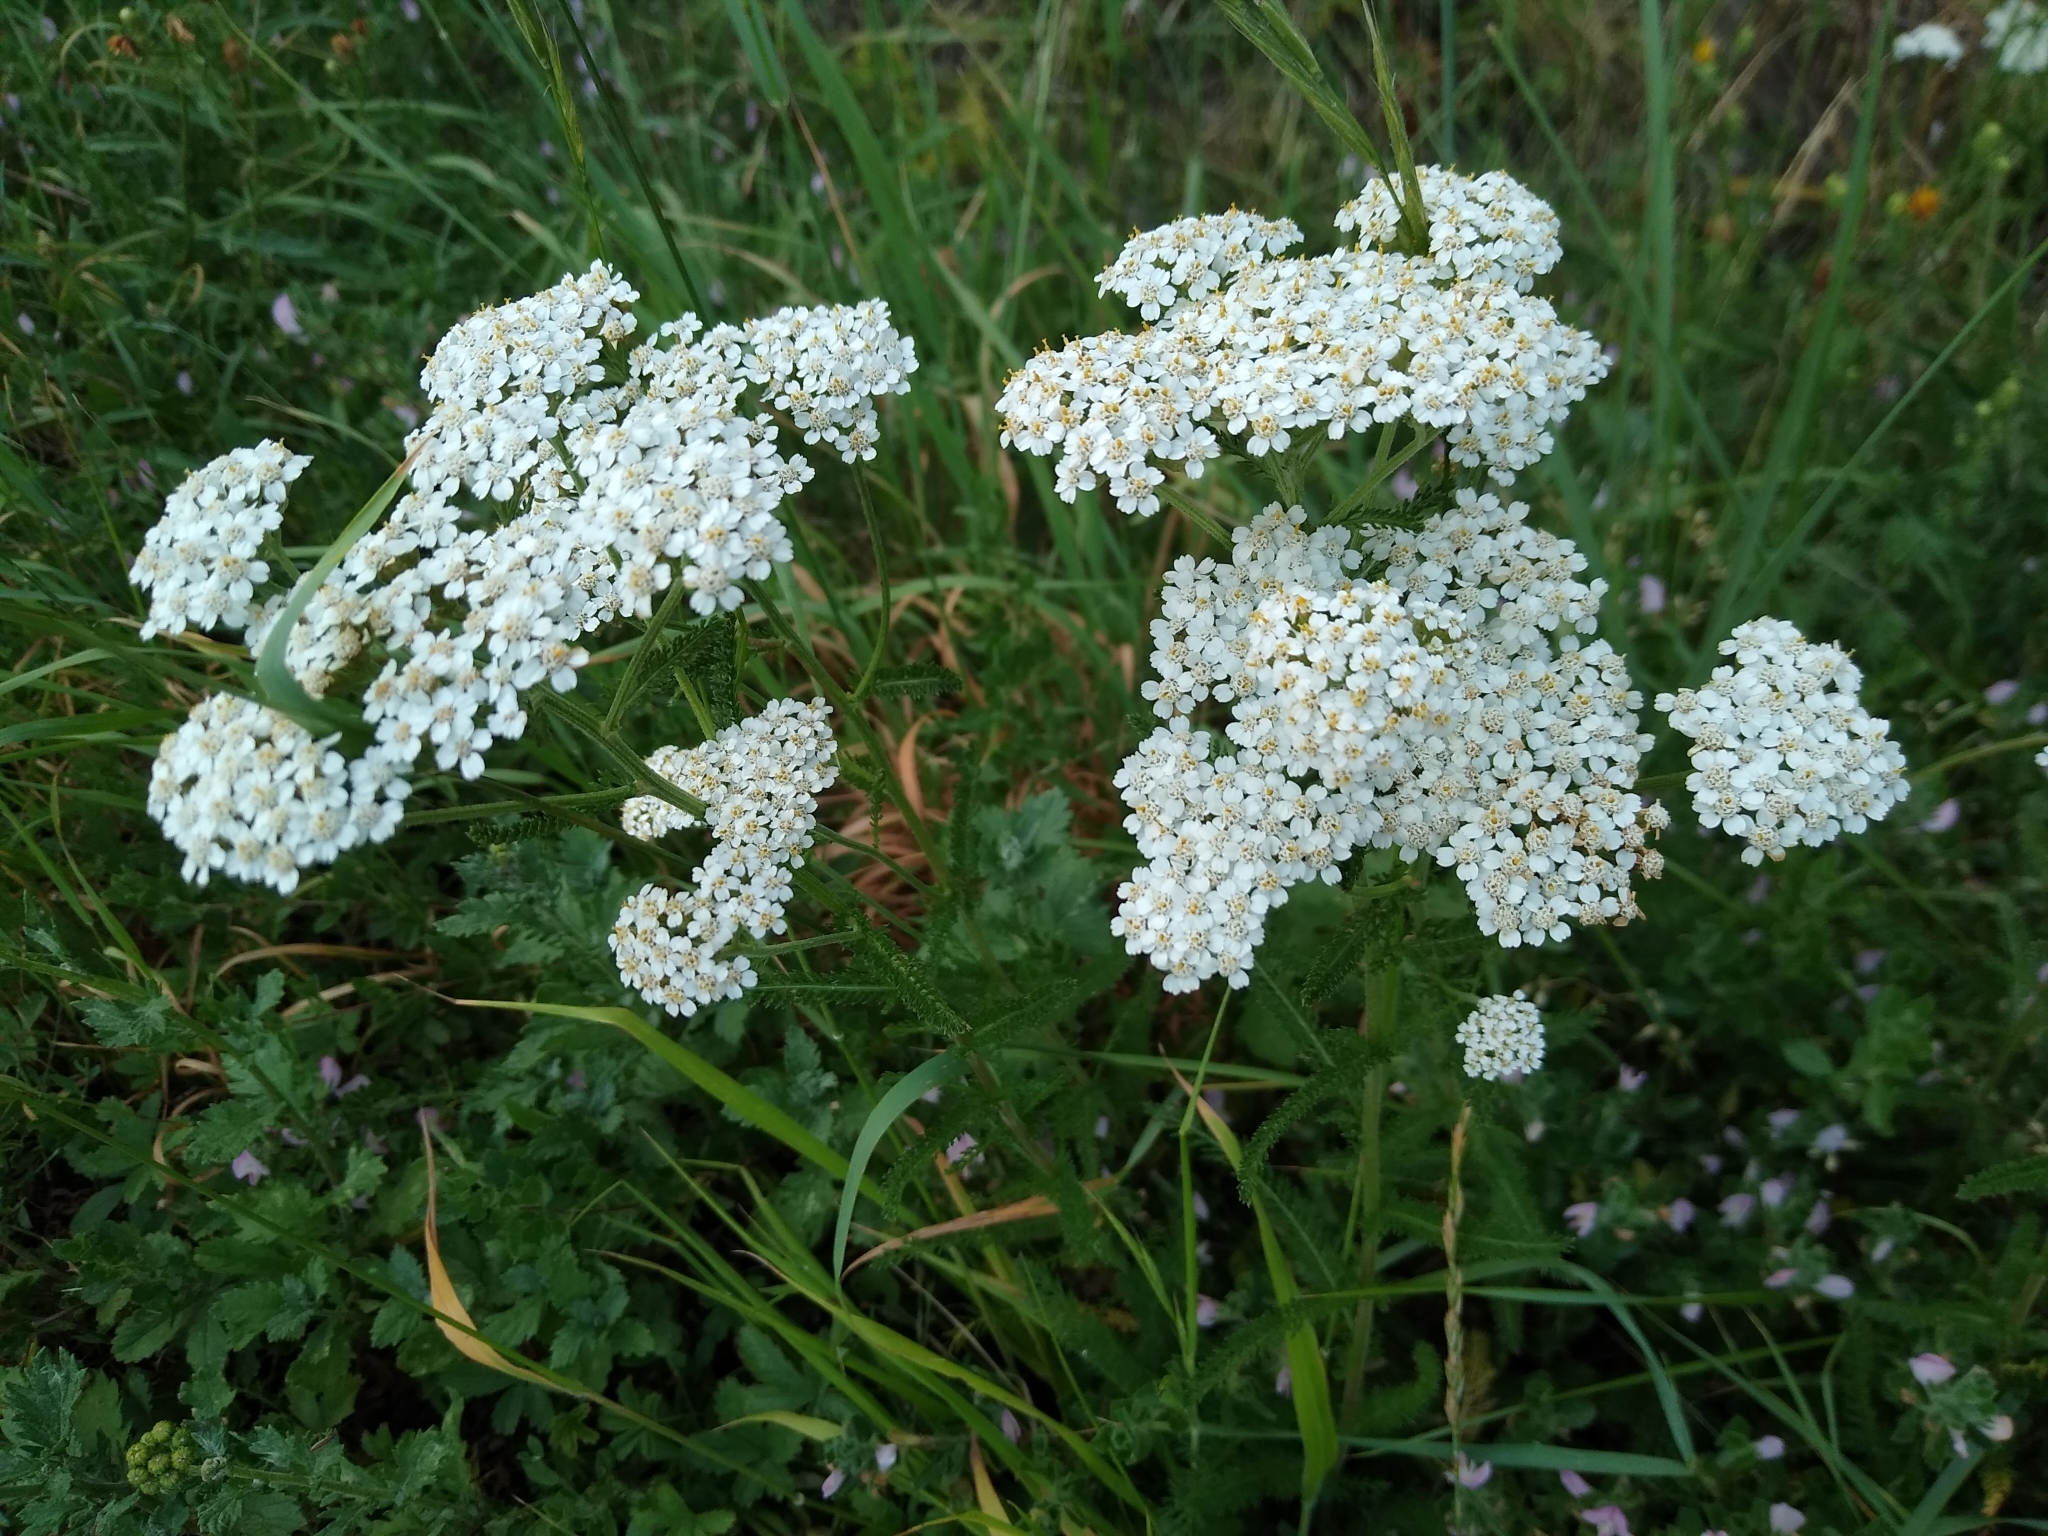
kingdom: Plantae
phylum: Tracheophyta
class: Magnoliopsida
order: Asterales
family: Asteraceae
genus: Achillea
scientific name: Achillea millefolium
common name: Yarrow
